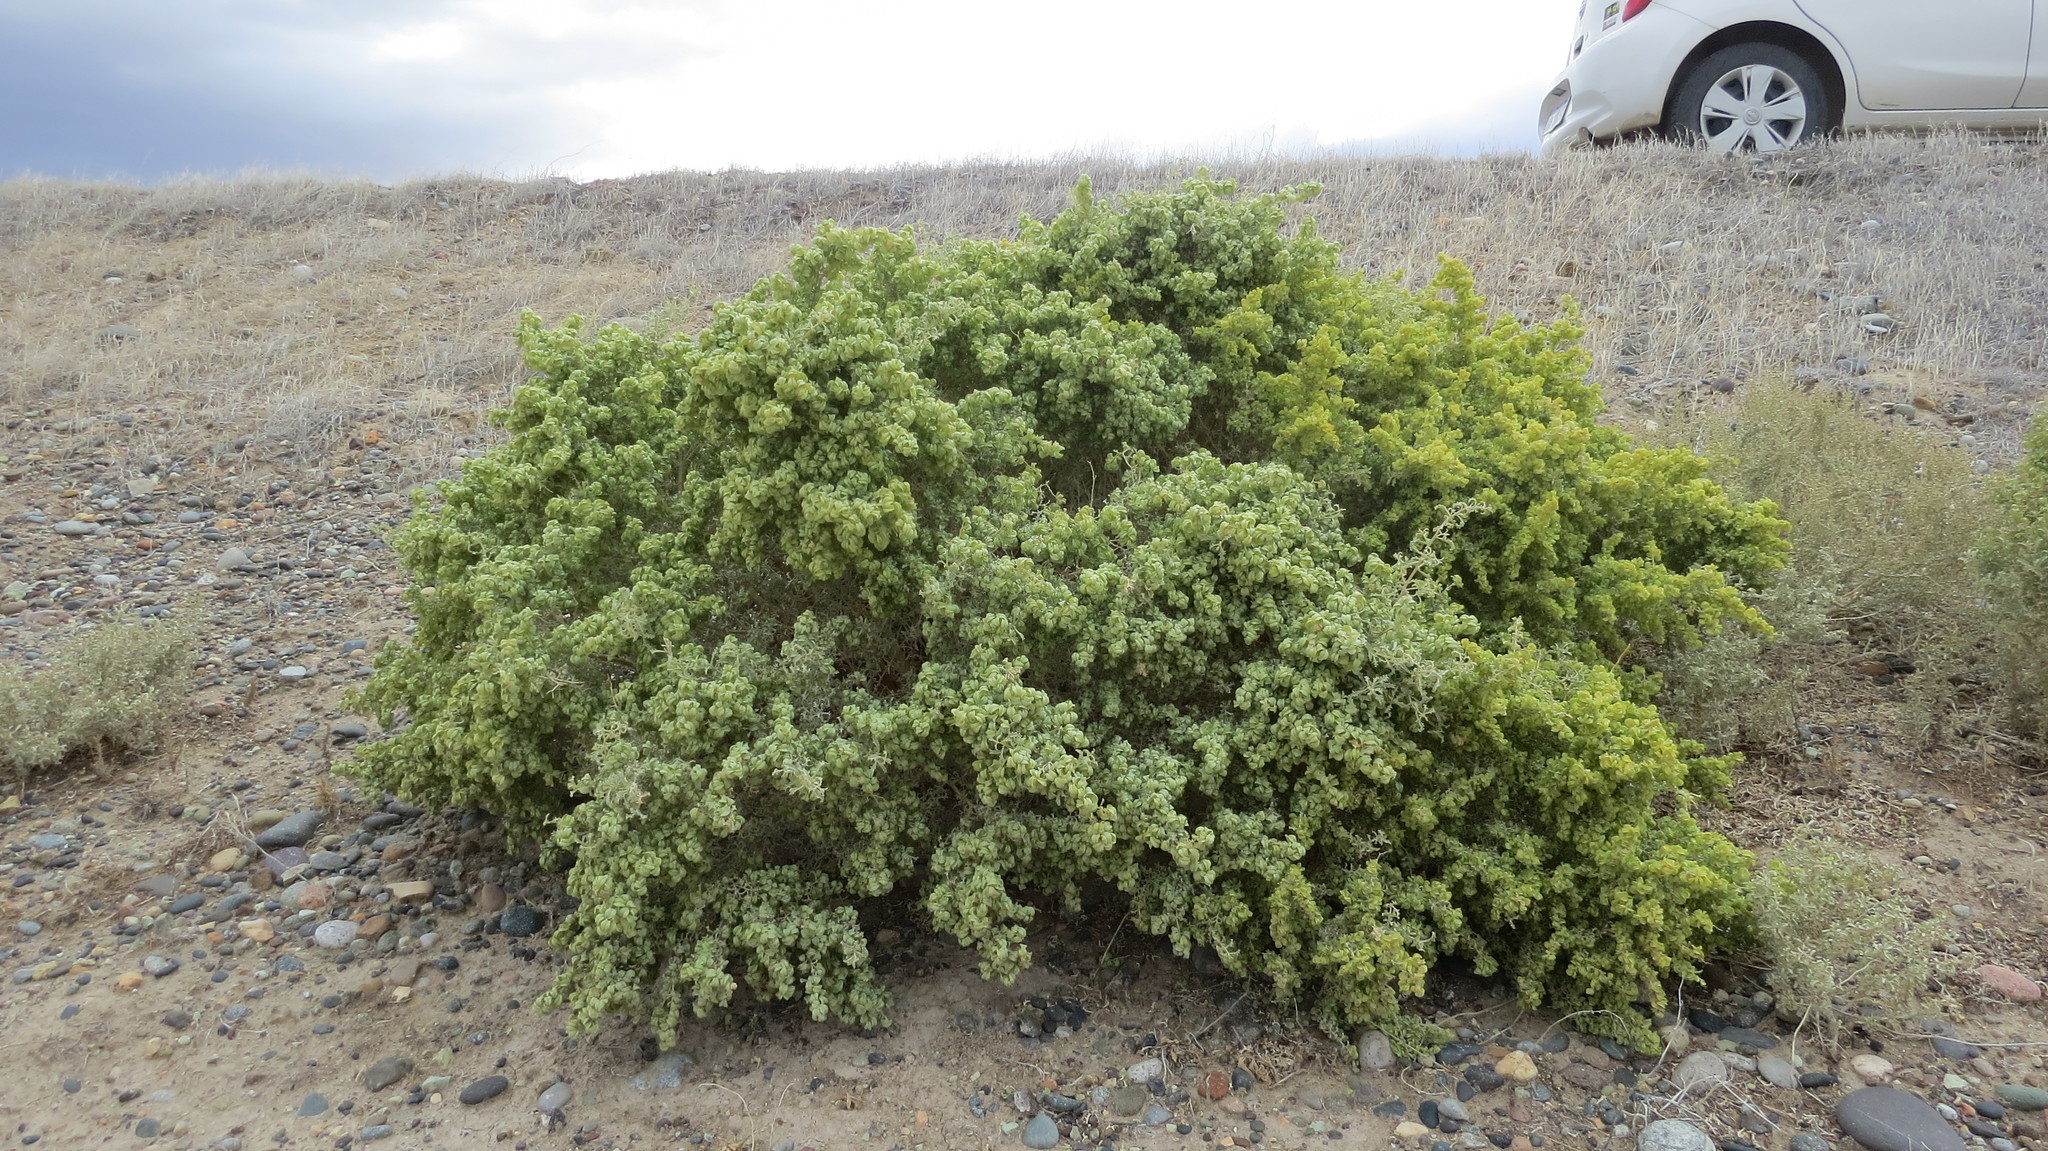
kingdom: Plantae
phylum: Tracheophyta
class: Magnoliopsida
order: Caryophyllales
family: Amaranthaceae
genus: Atriplex
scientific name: Atriplex lampa
